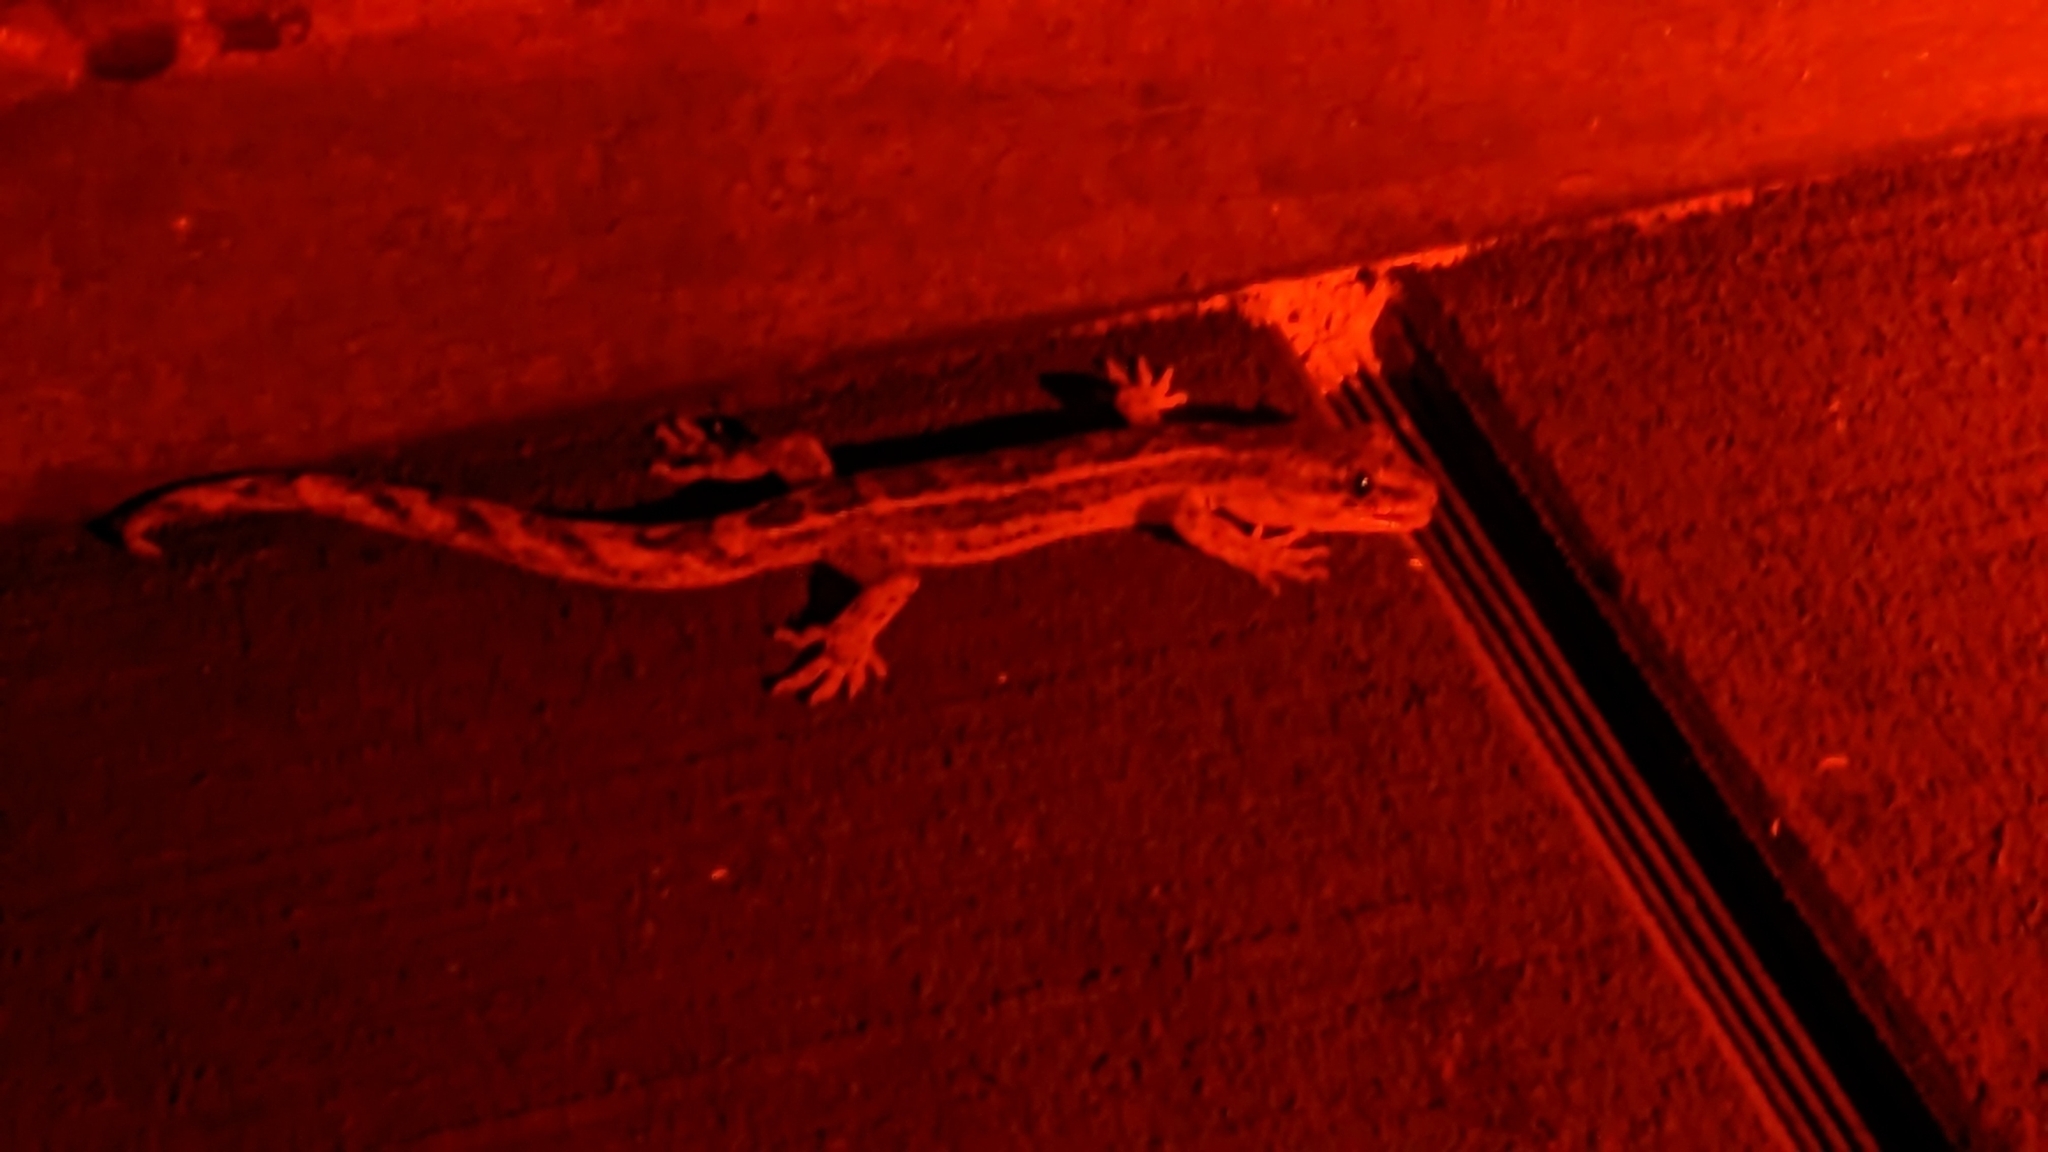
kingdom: Animalia
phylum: Chordata
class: Squamata
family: Diplodactylidae
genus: Woodworthia
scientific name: Woodworthia maculata
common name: Raukawa gecko
